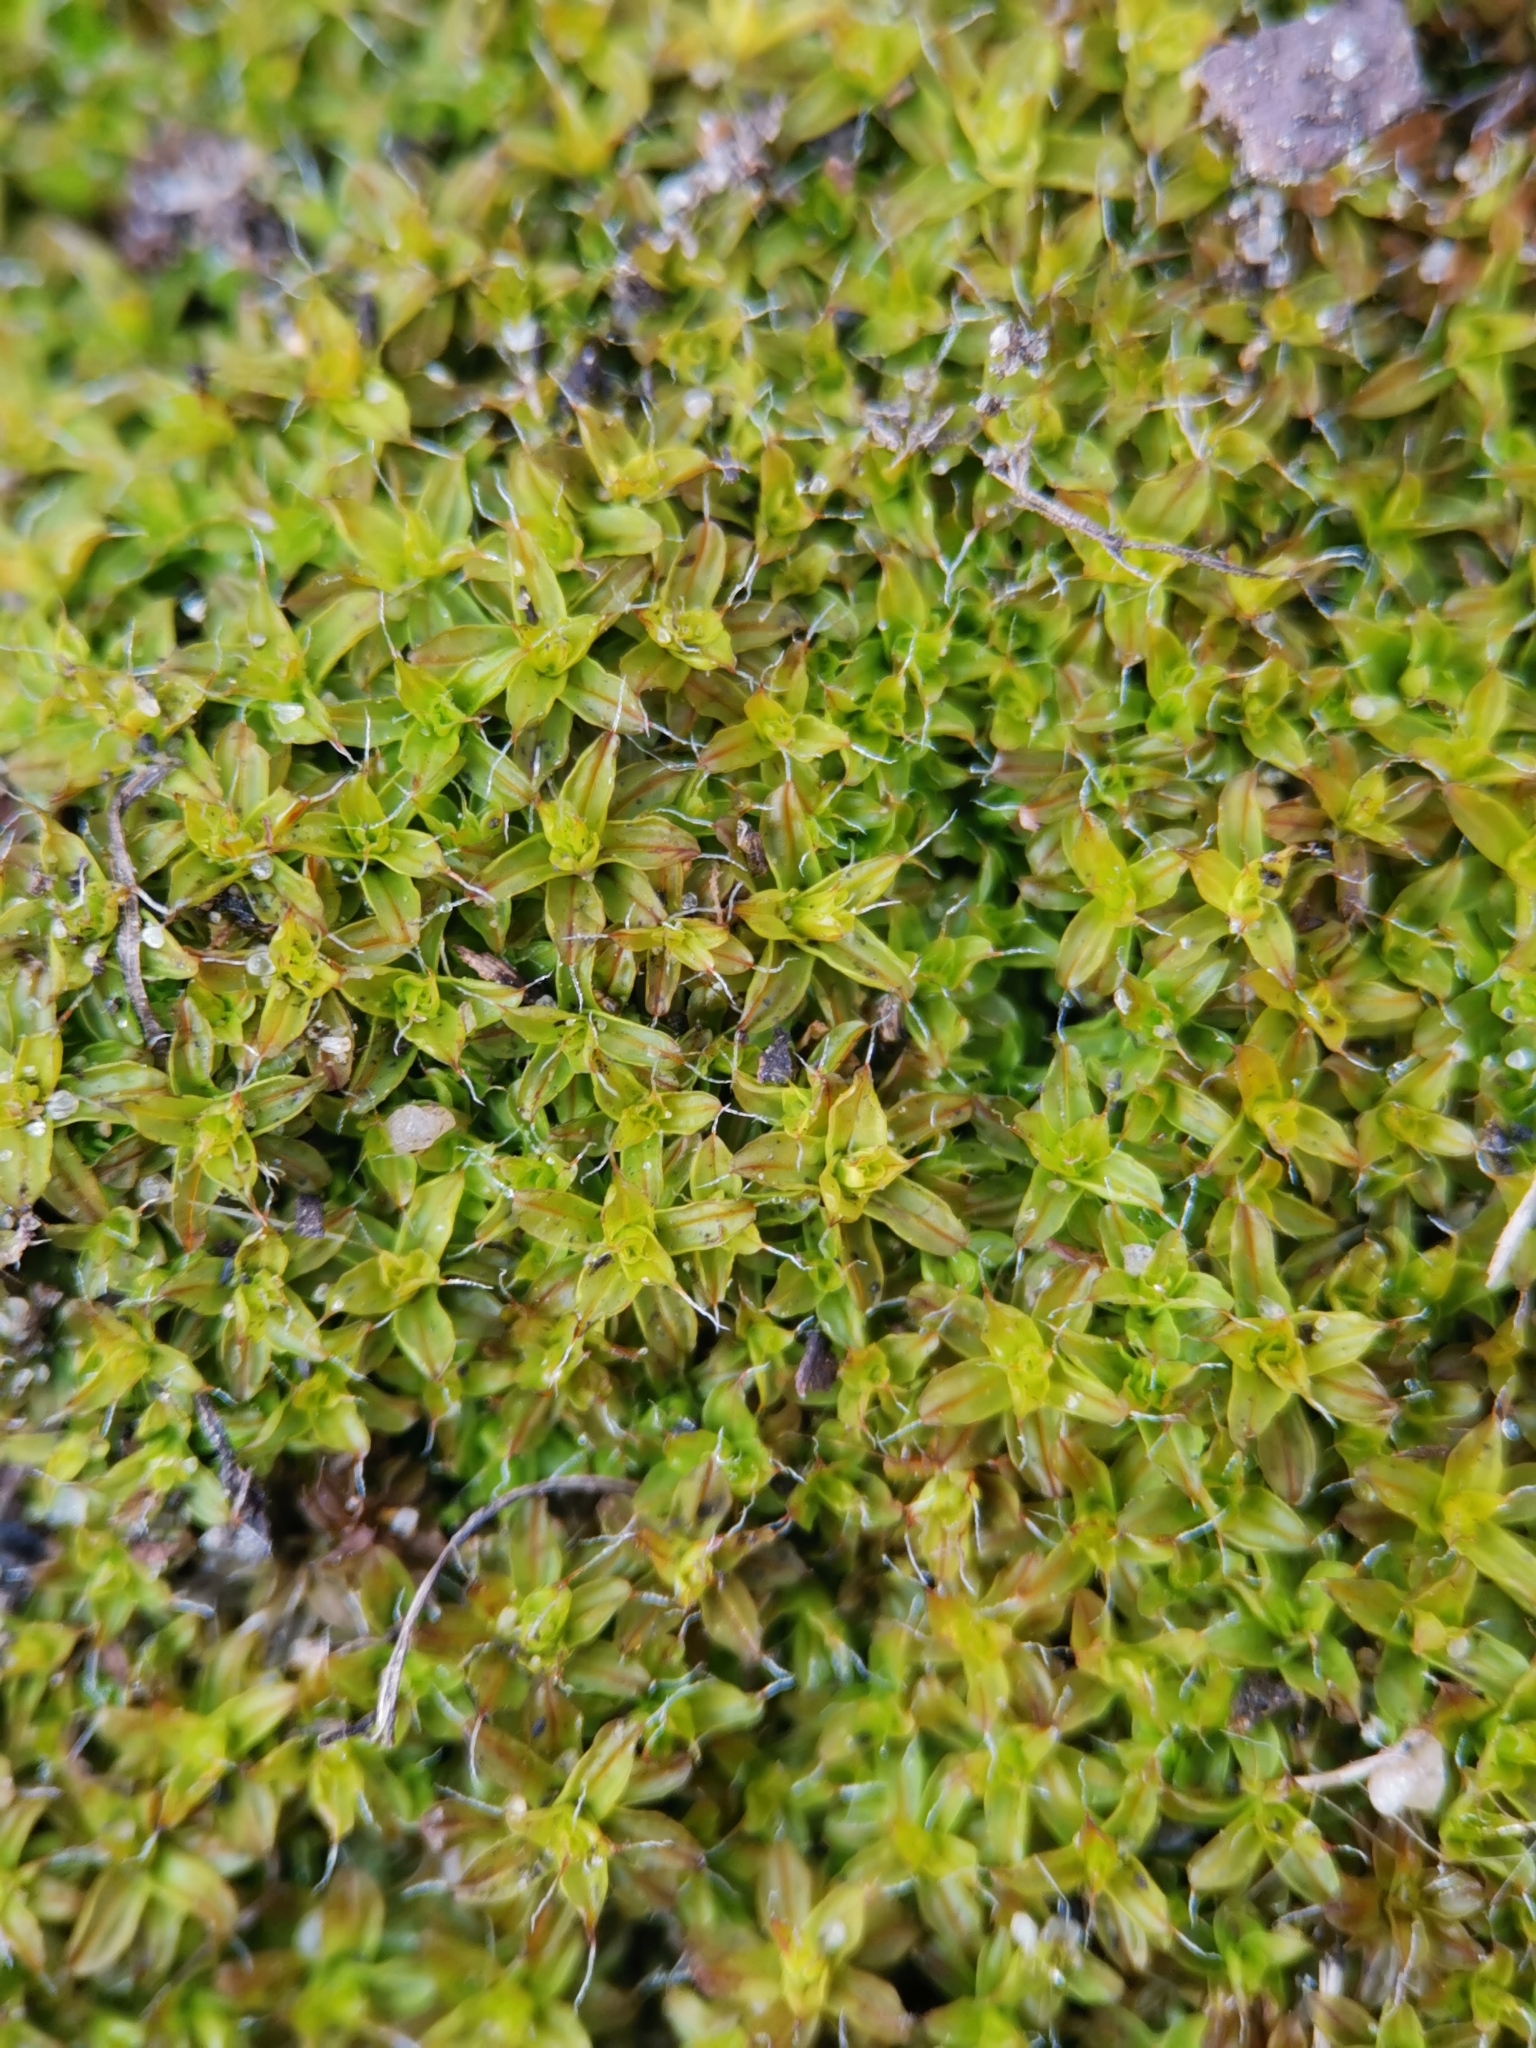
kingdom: Plantae
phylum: Bryophyta
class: Bryopsida
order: Pottiales
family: Pottiaceae
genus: Syntrichia
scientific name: Syntrichia ruralis
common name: Sidewalk screw moss
